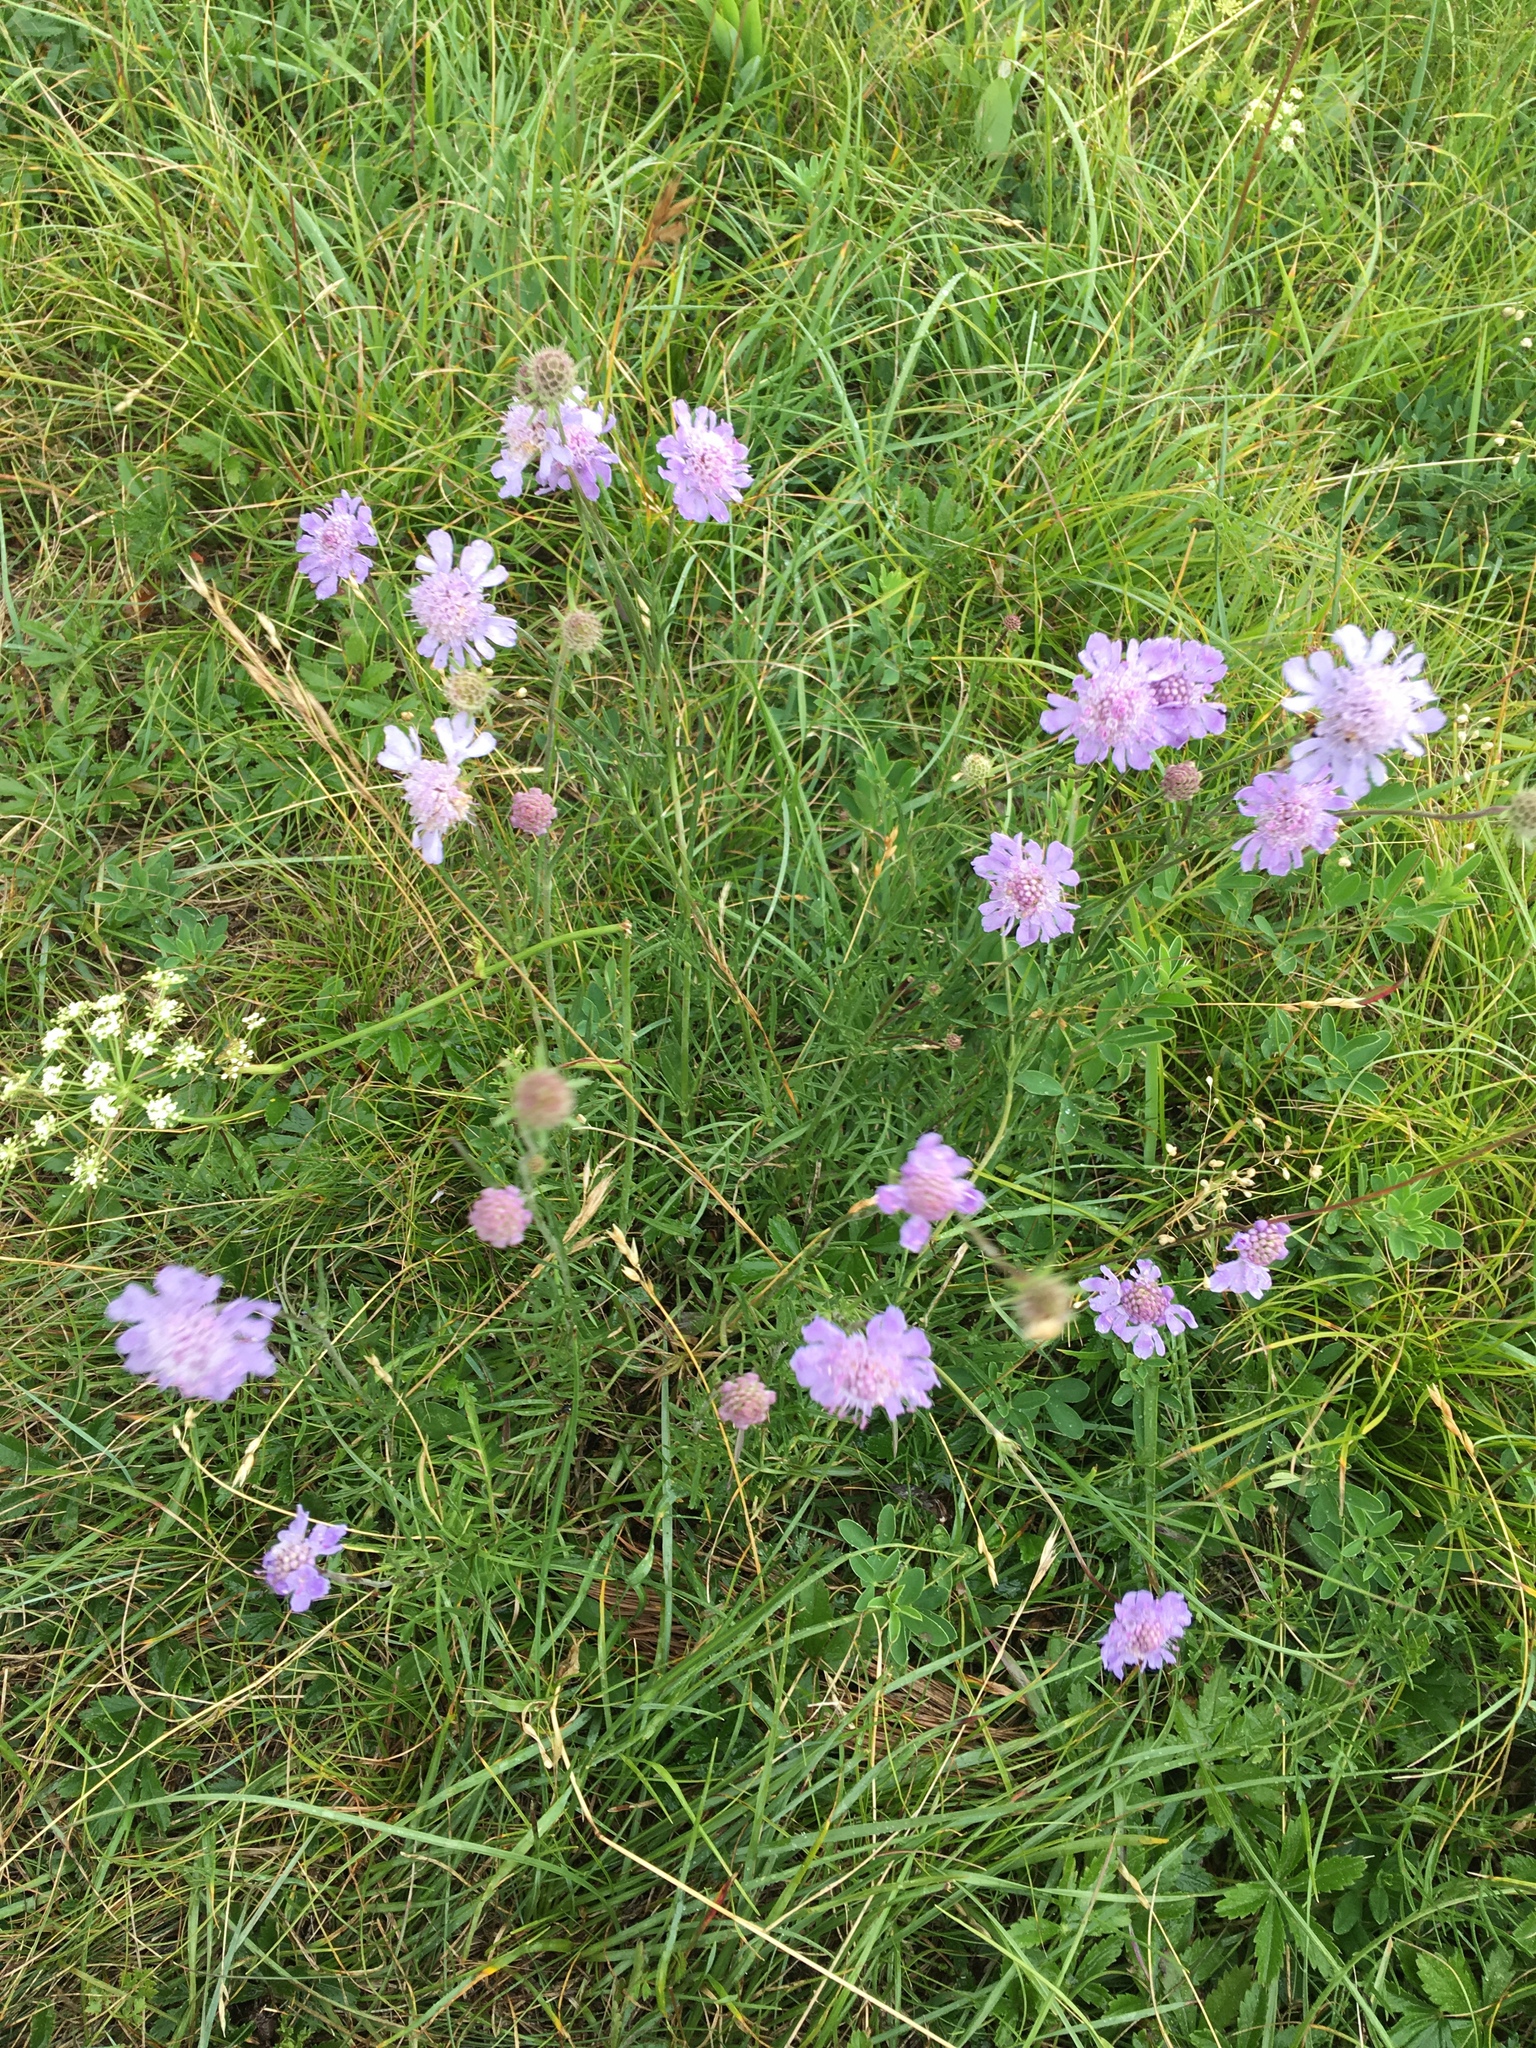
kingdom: Plantae
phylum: Tracheophyta
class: Magnoliopsida
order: Dipsacales
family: Caprifoliaceae
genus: Scabiosa
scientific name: Scabiosa columbaria
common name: Small scabious
